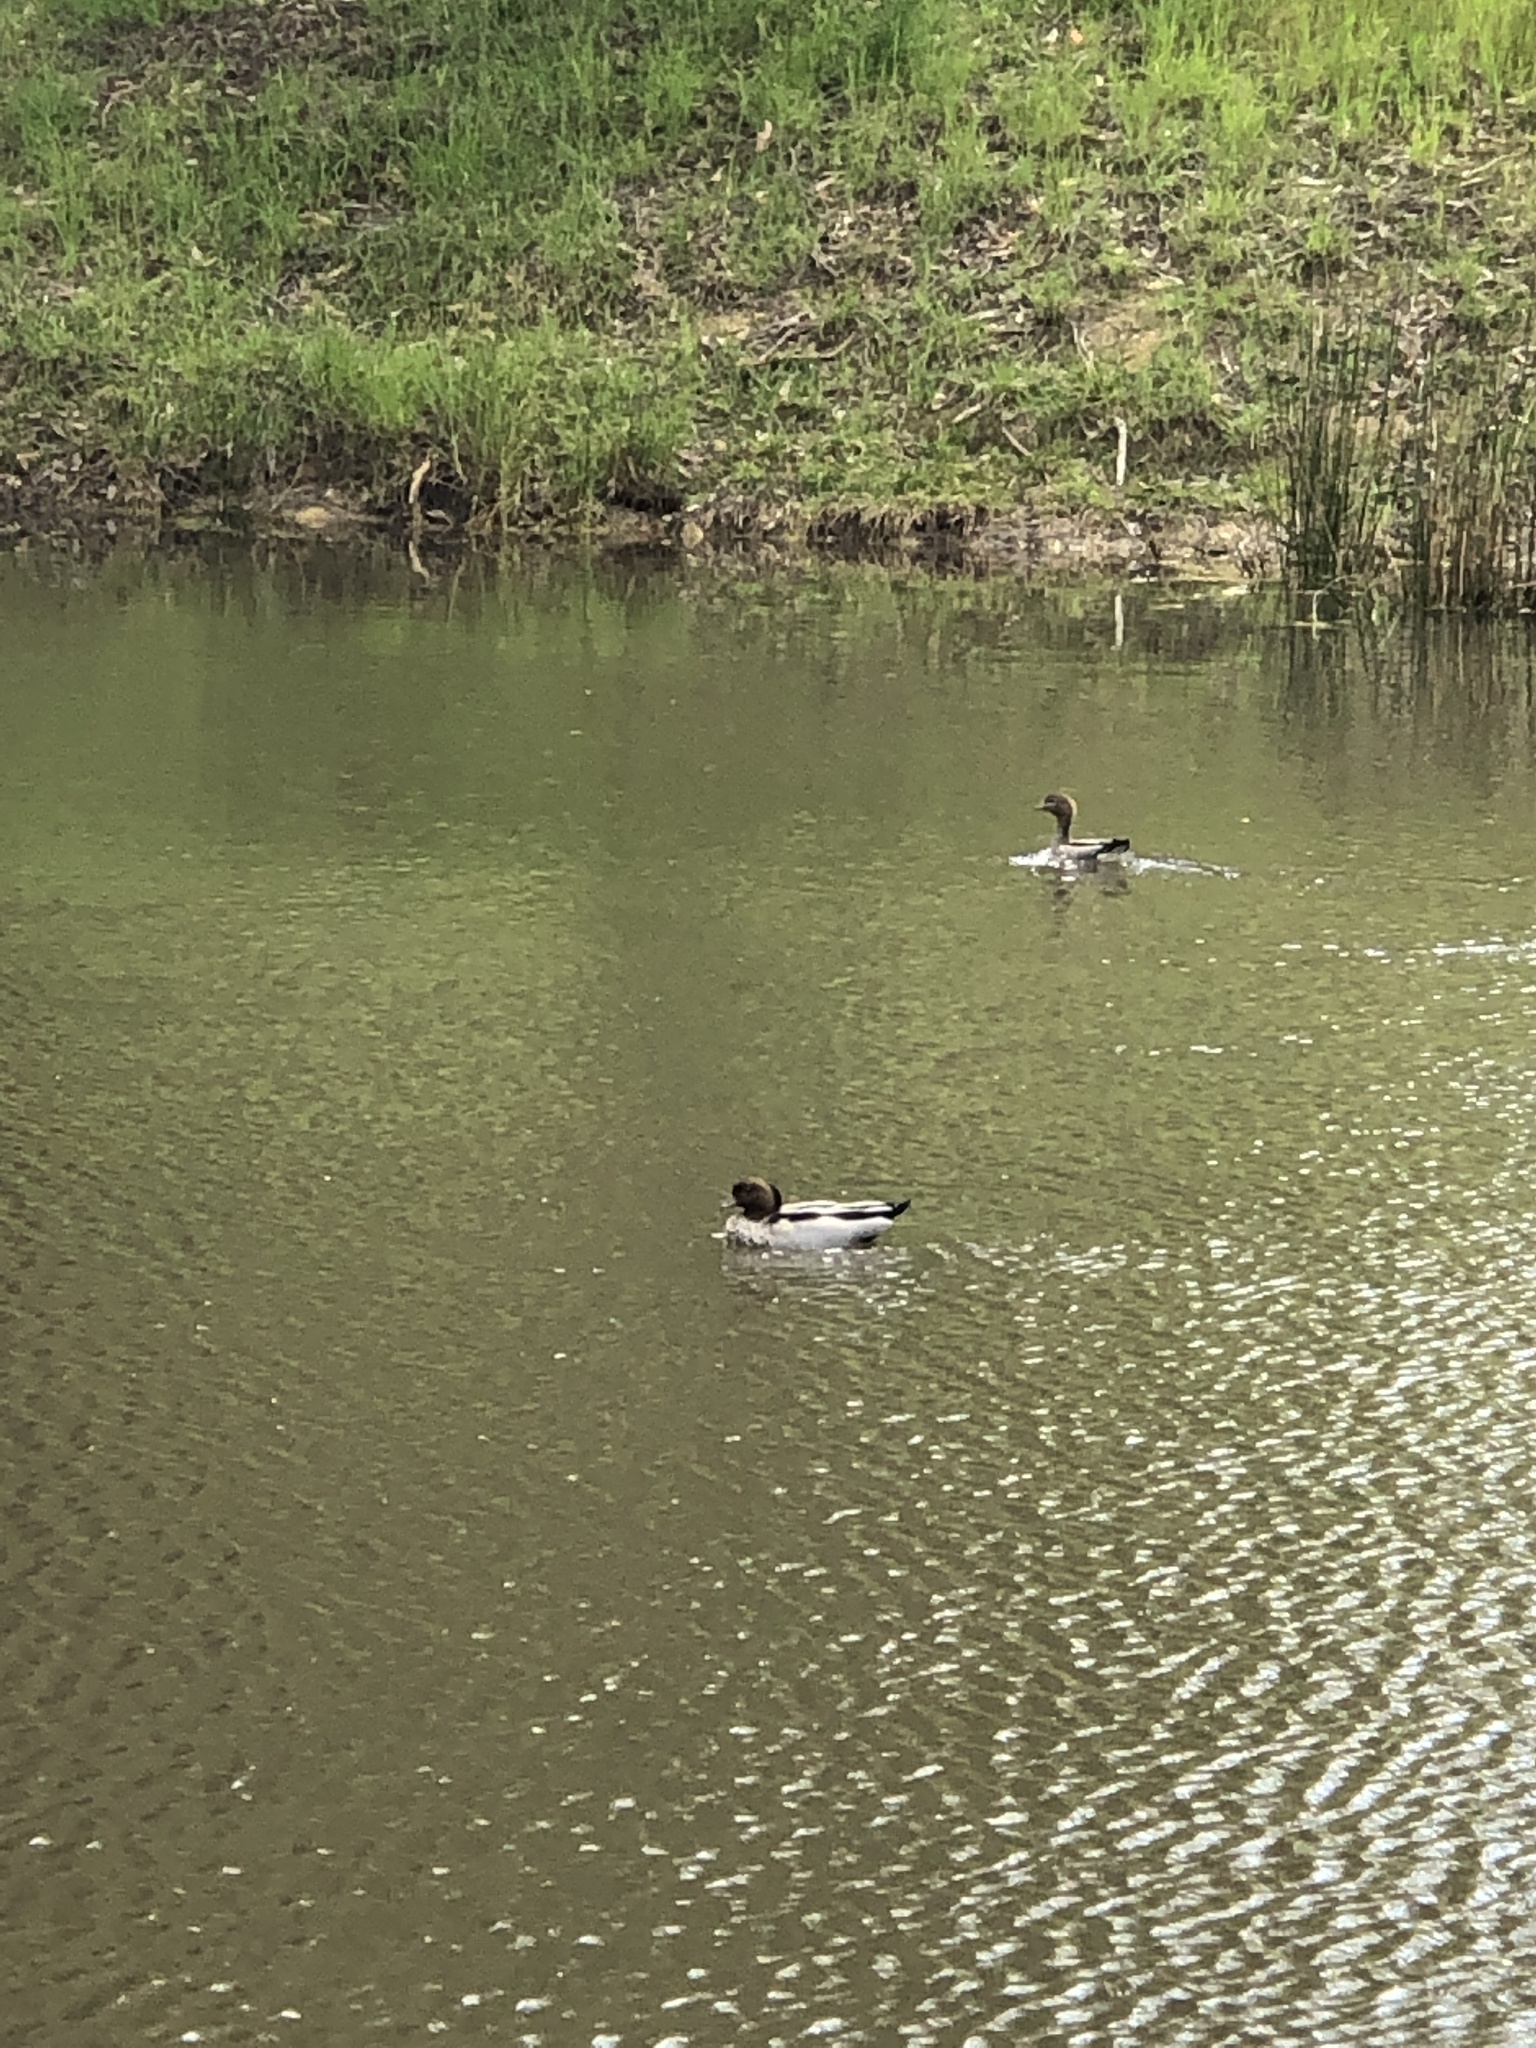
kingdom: Animalia
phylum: Chordata
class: Aves
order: Anseriformes
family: Anatidae
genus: Chenonetta
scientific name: Chenonetta jubata
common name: Maned duck
